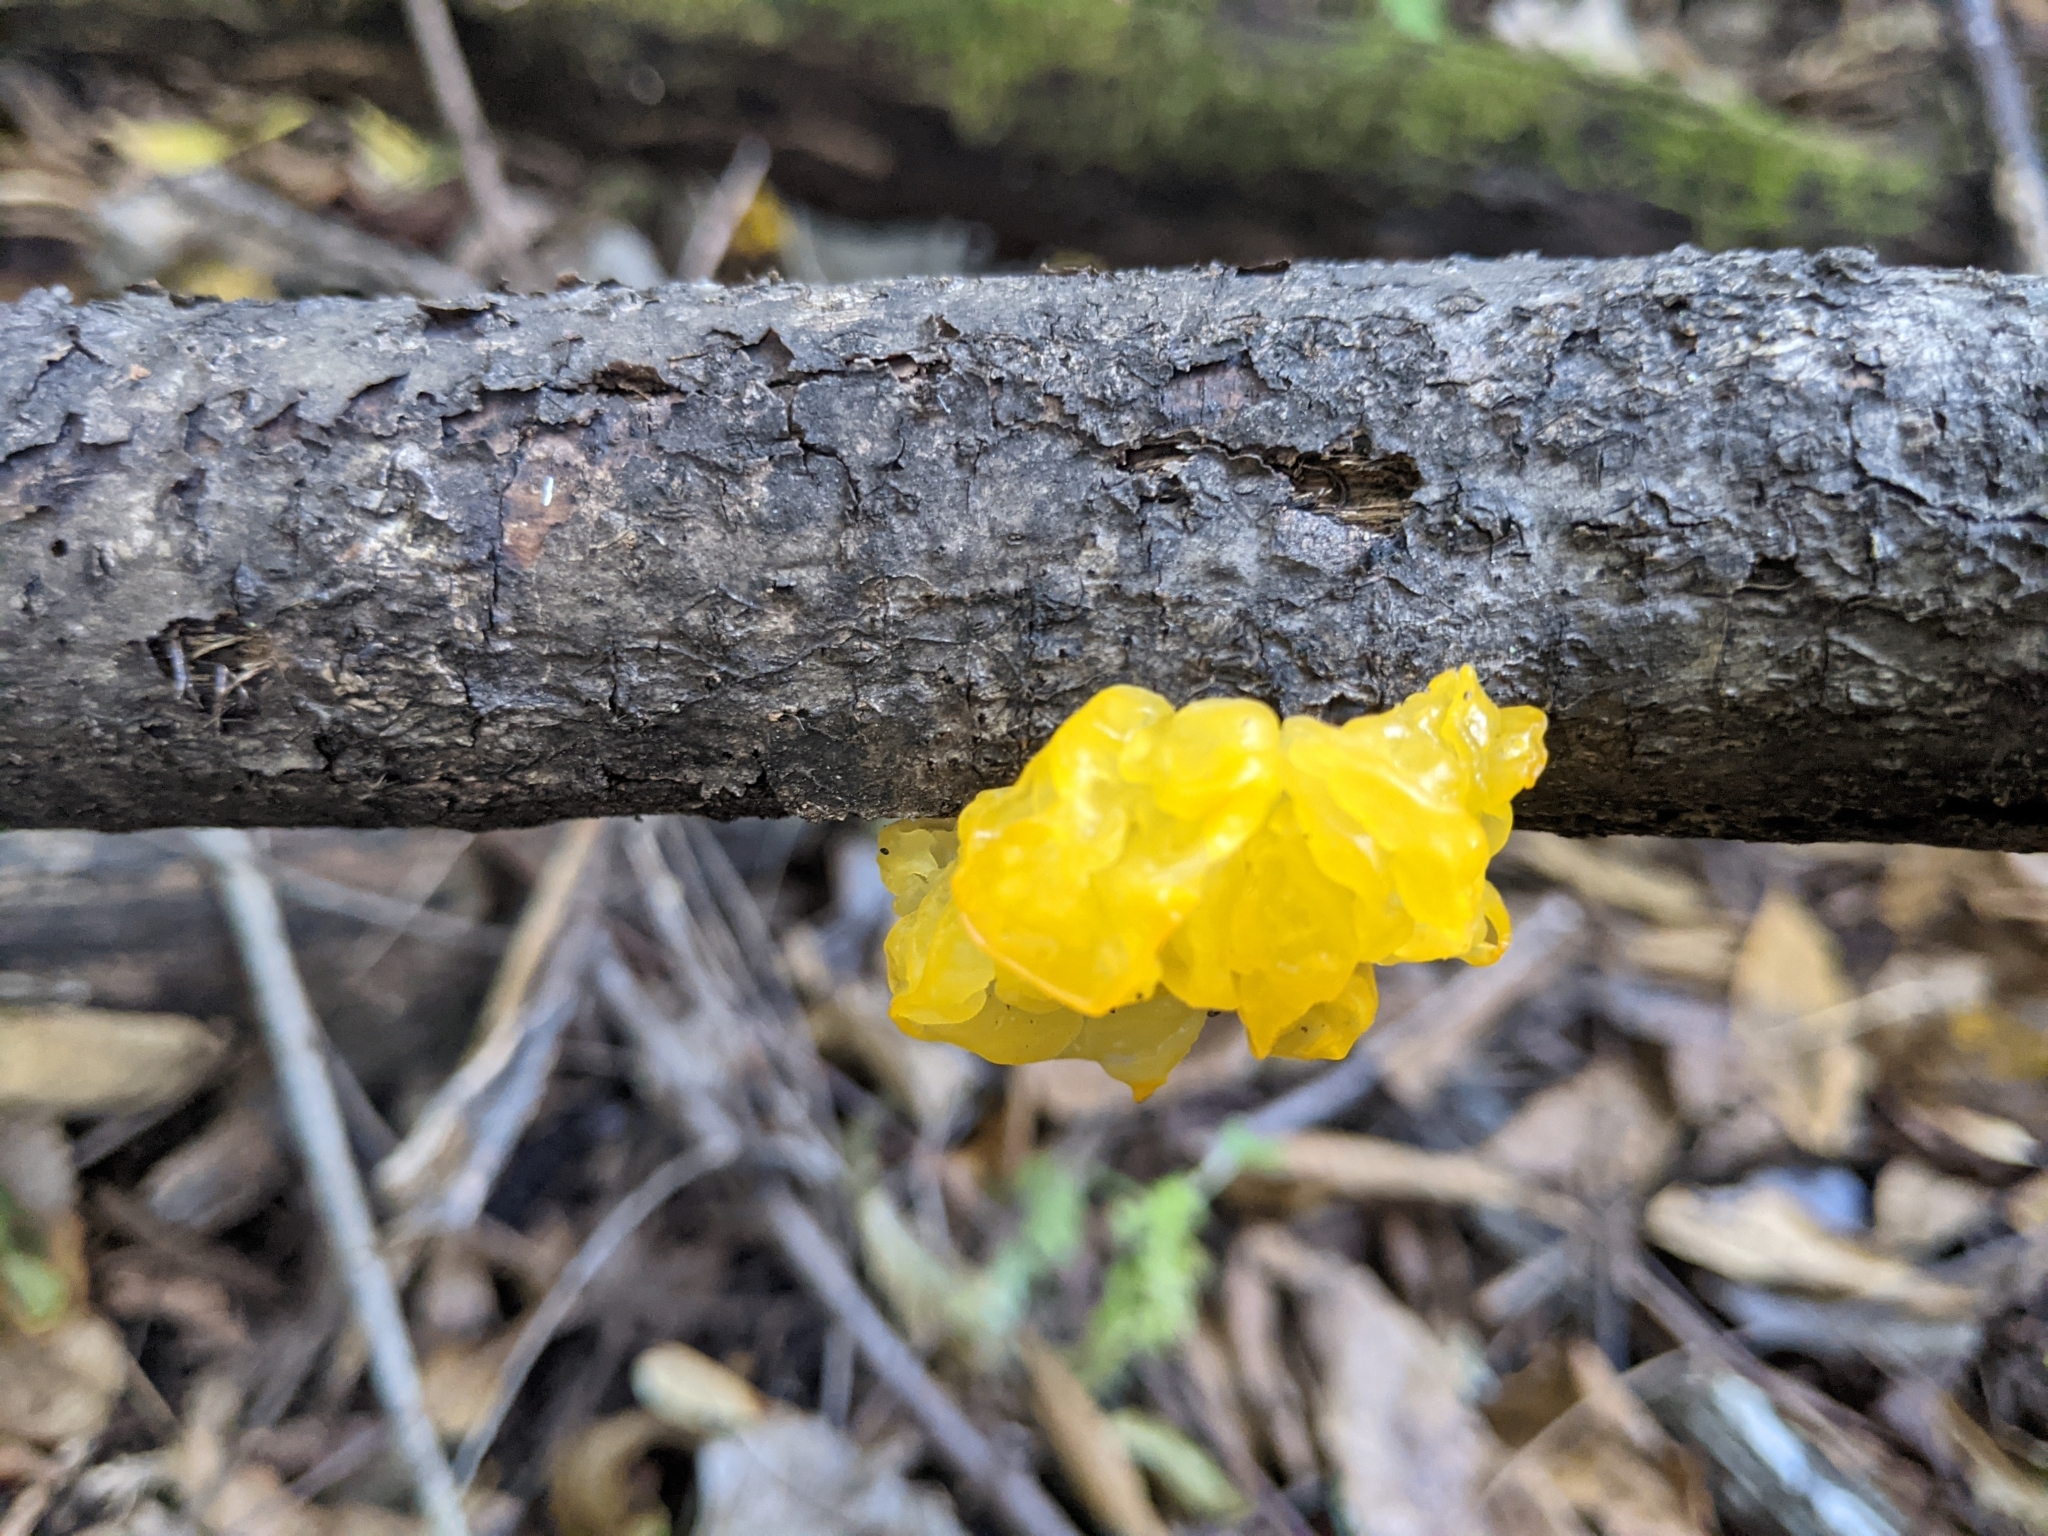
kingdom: Fungi
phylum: Basidiomycota
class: Tremellomycetes
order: Tremellales
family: Tremellaceae
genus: Tremella
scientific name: Tremella mesenterica
